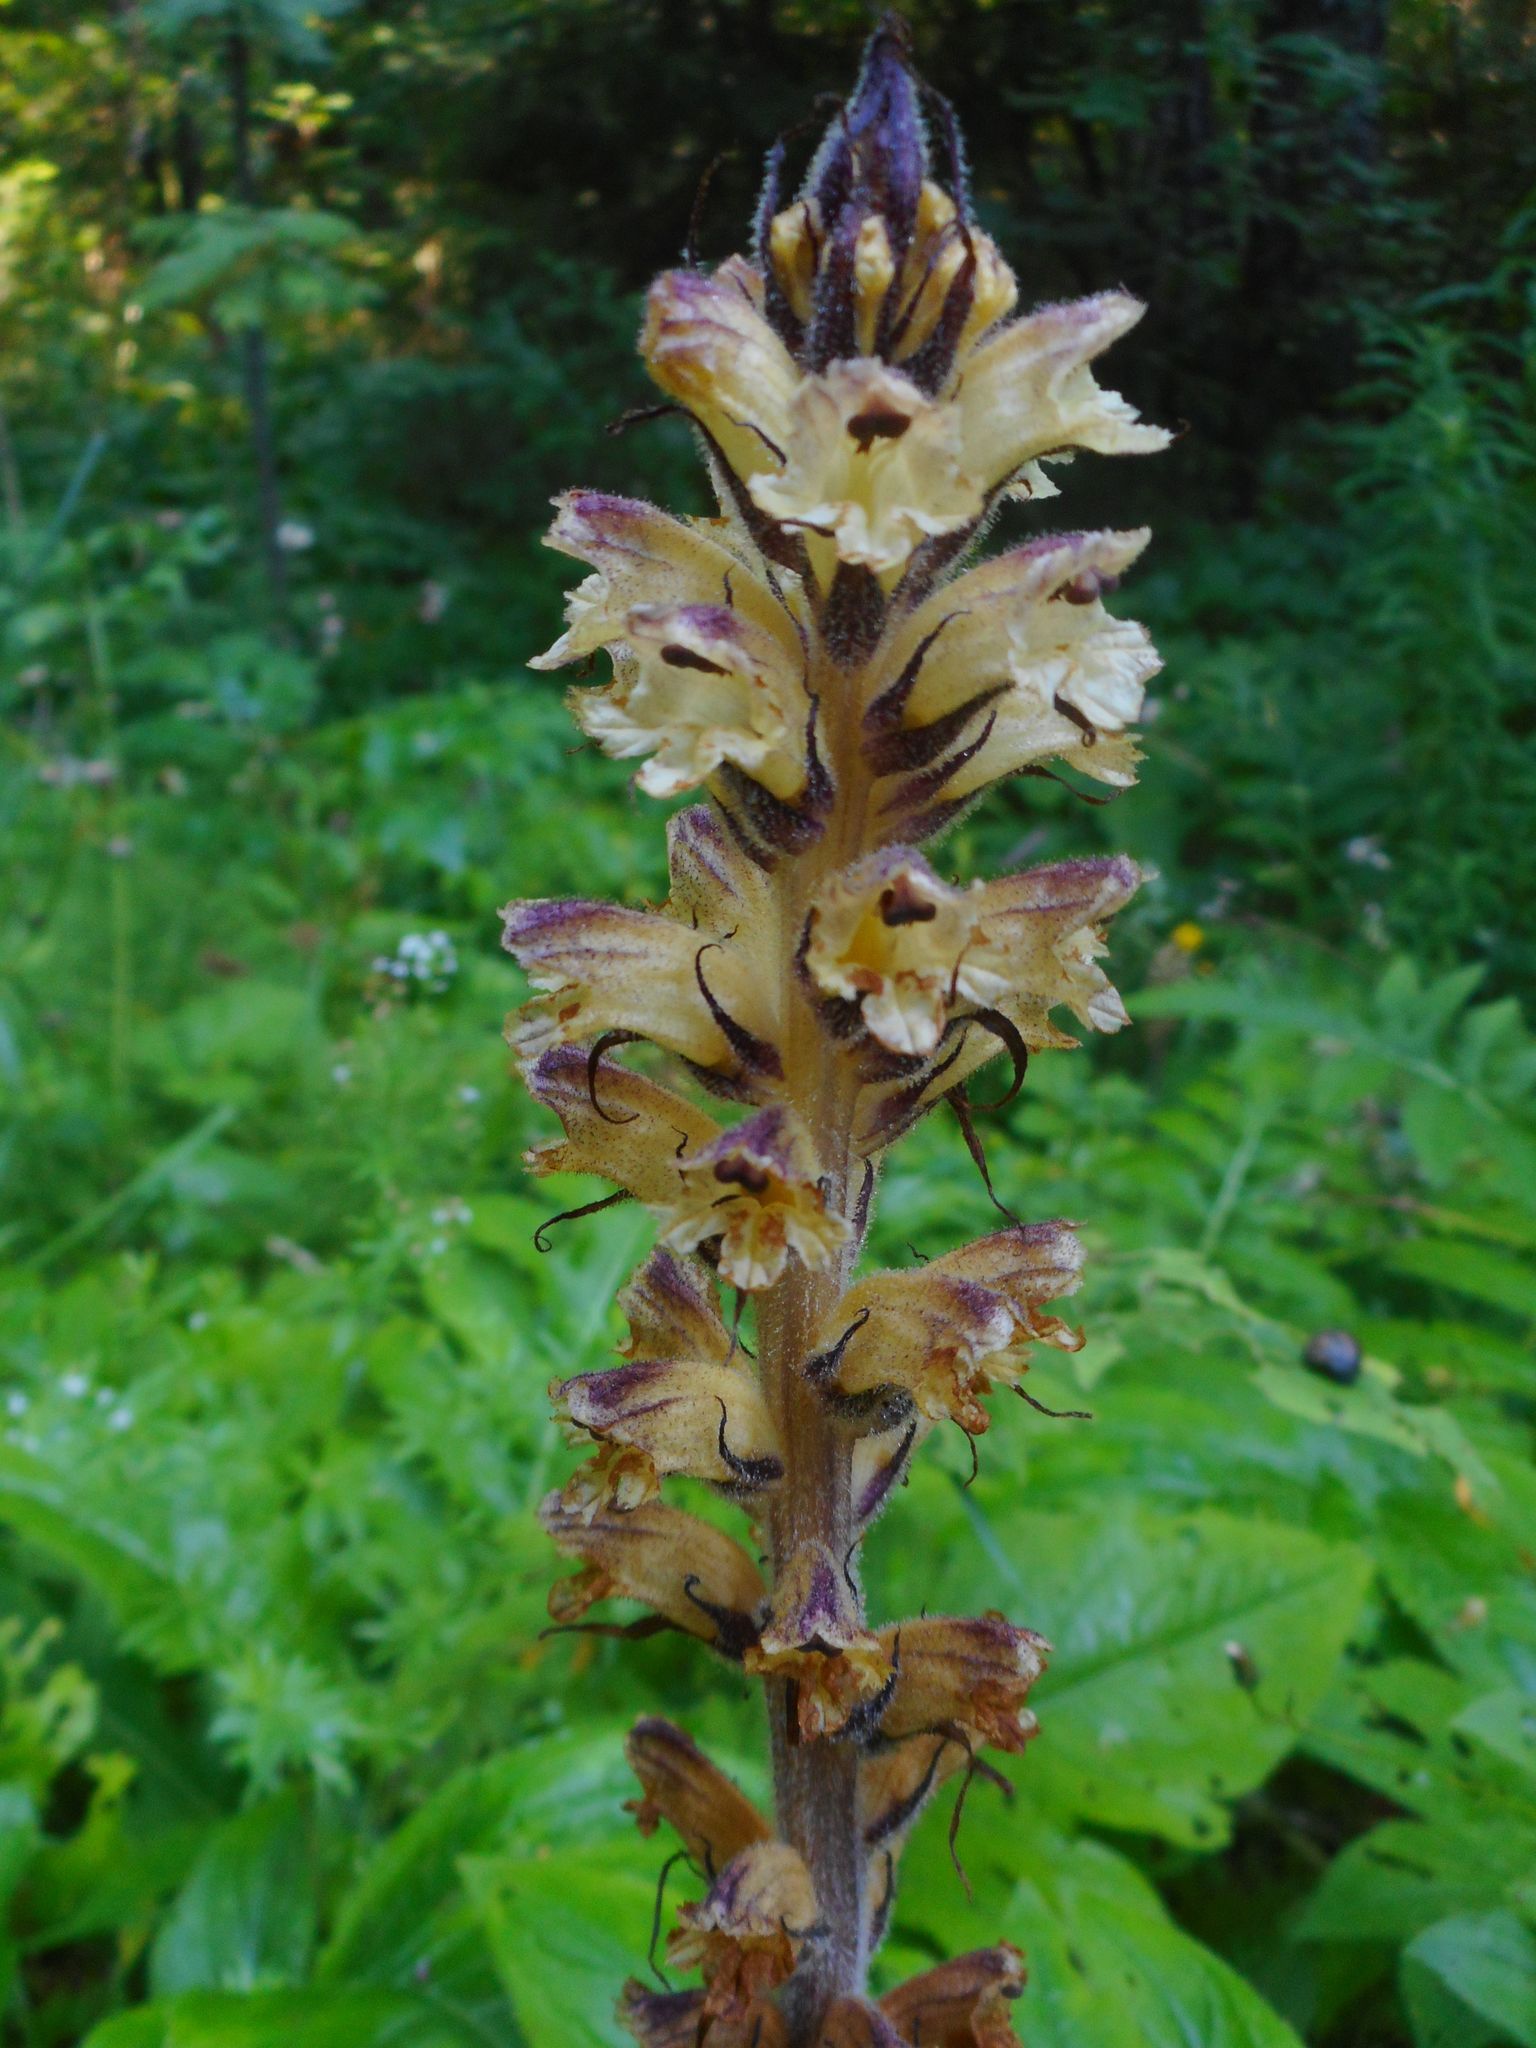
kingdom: Plantae
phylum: Tracheophyta
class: Magnoliopsida
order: Lamiales
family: Orobanchaceae
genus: Orobanche
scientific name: Orobanche reticulata
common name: Thistle broomrape
